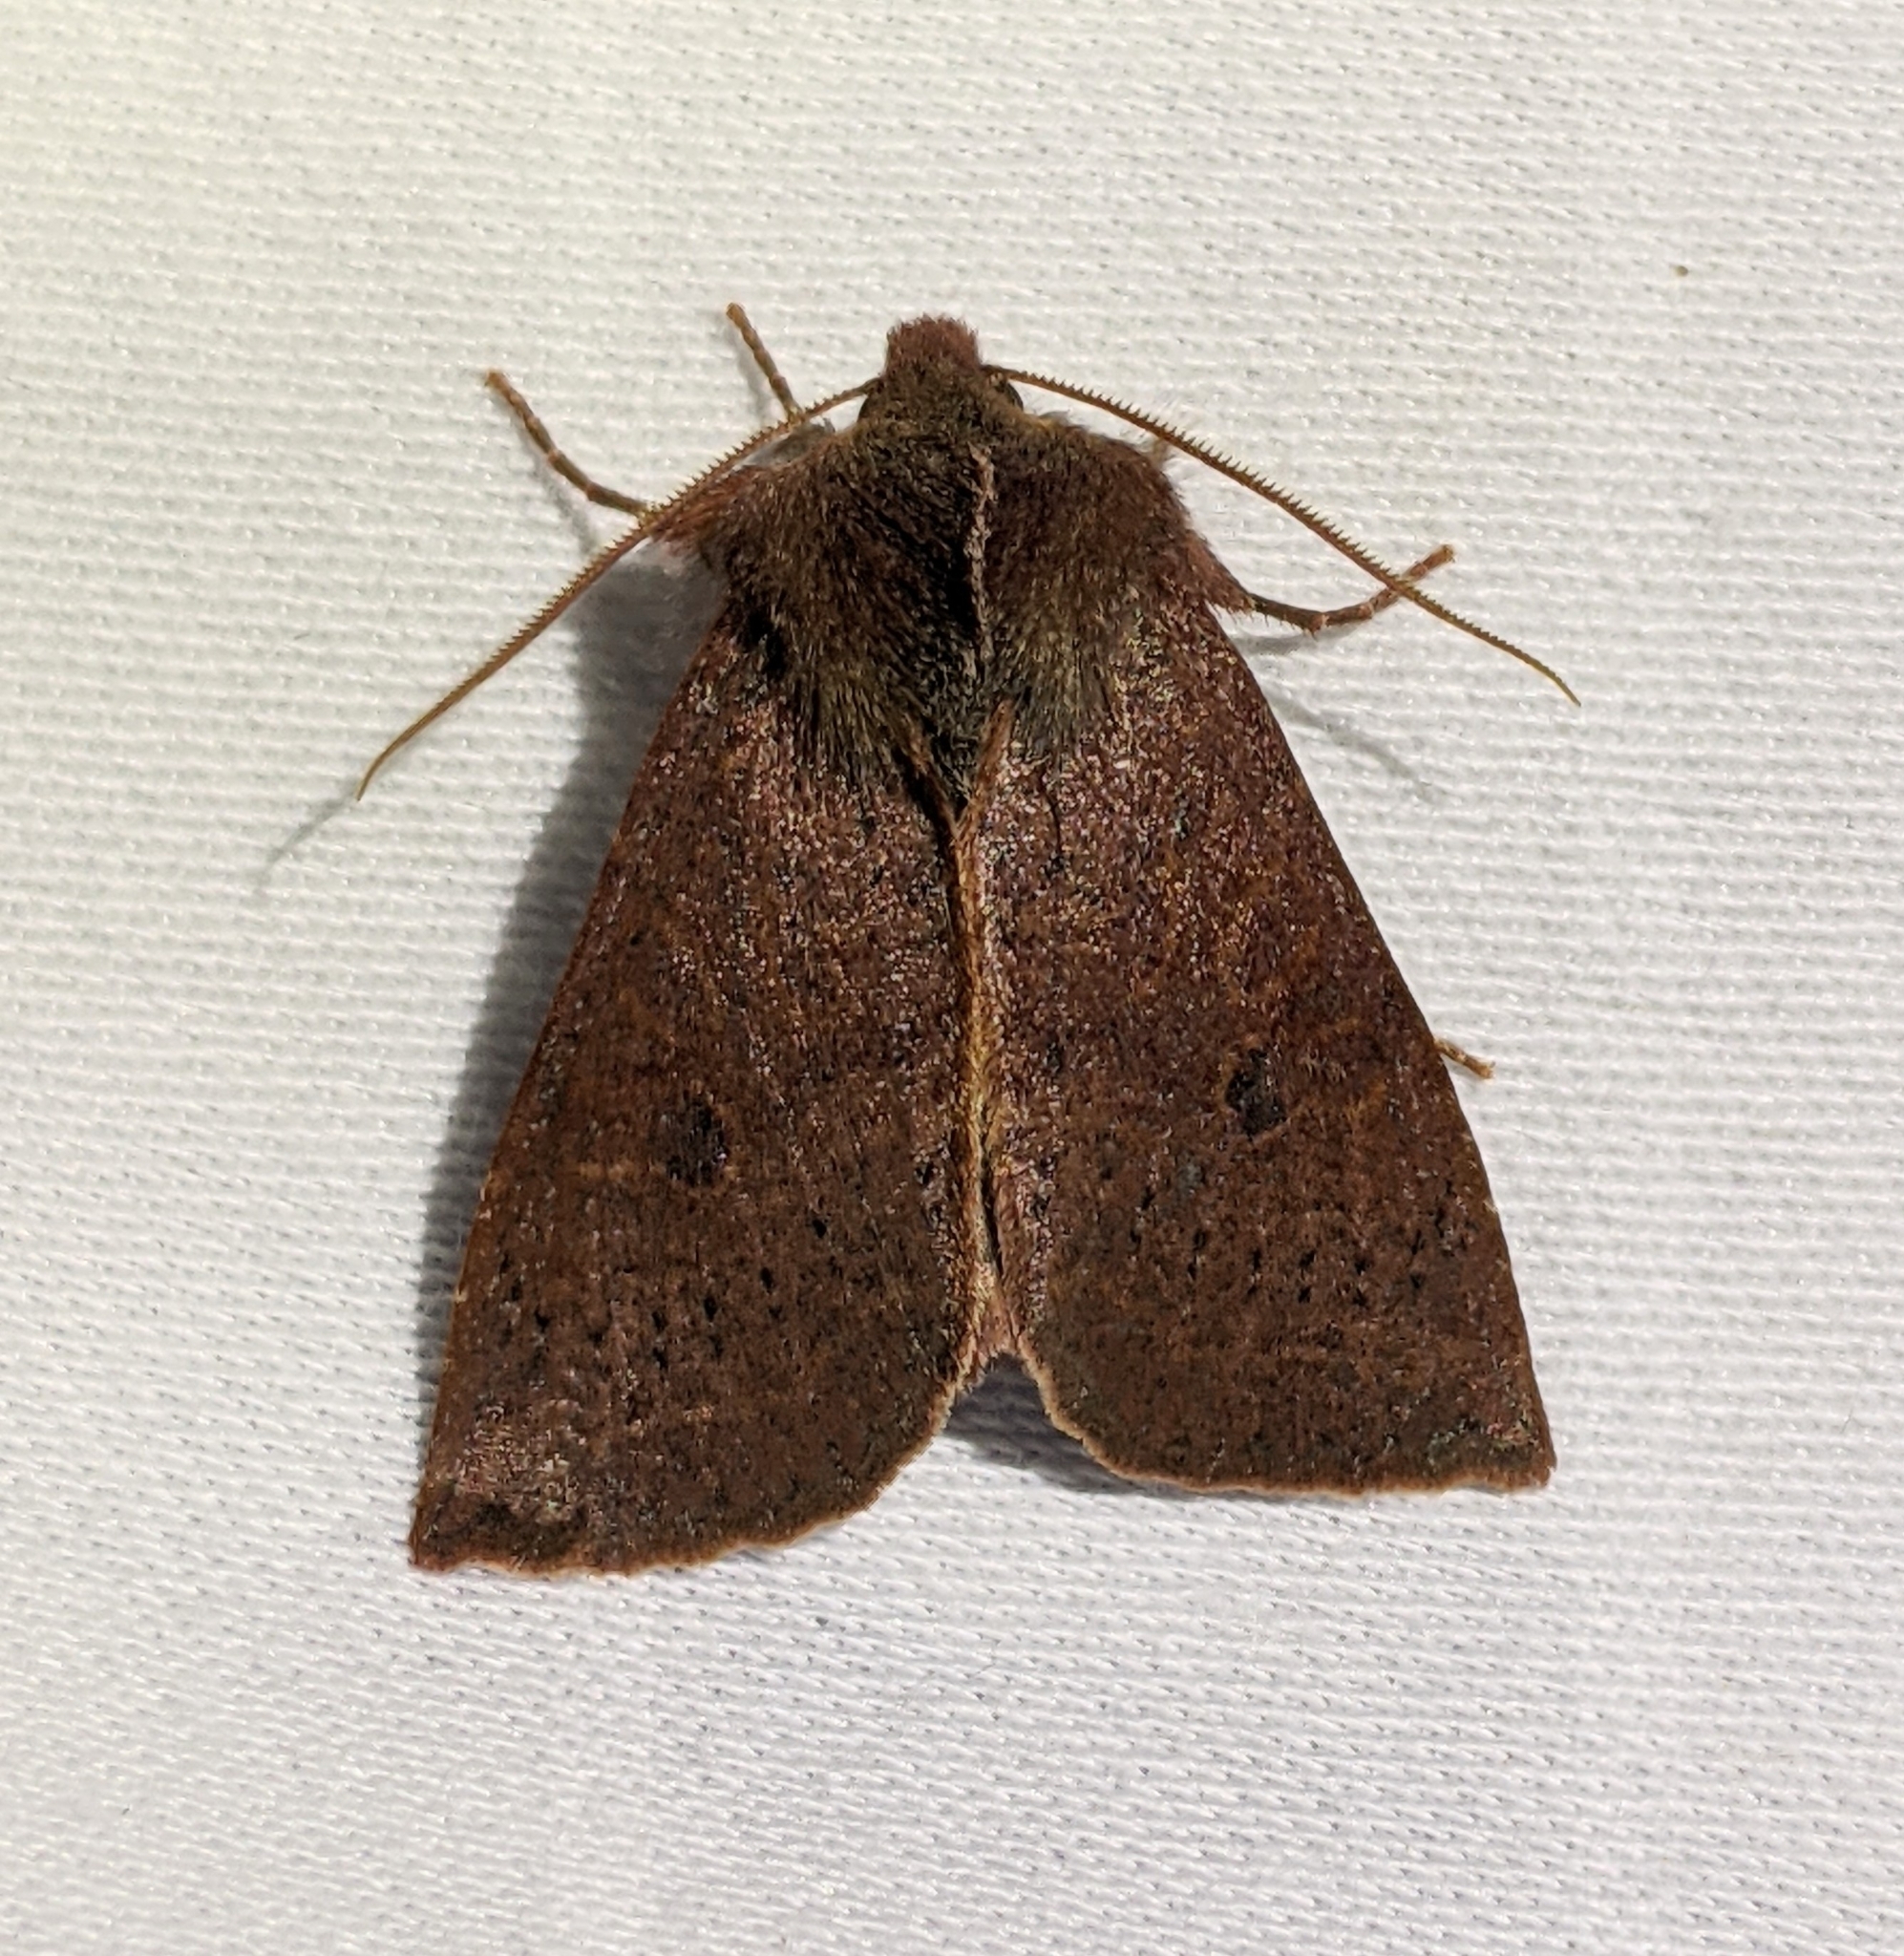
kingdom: Animalia
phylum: Arthropoda
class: Insecta
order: Lepidoptera
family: Noctuidae
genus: Orthosia
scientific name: Orthosia transparens
